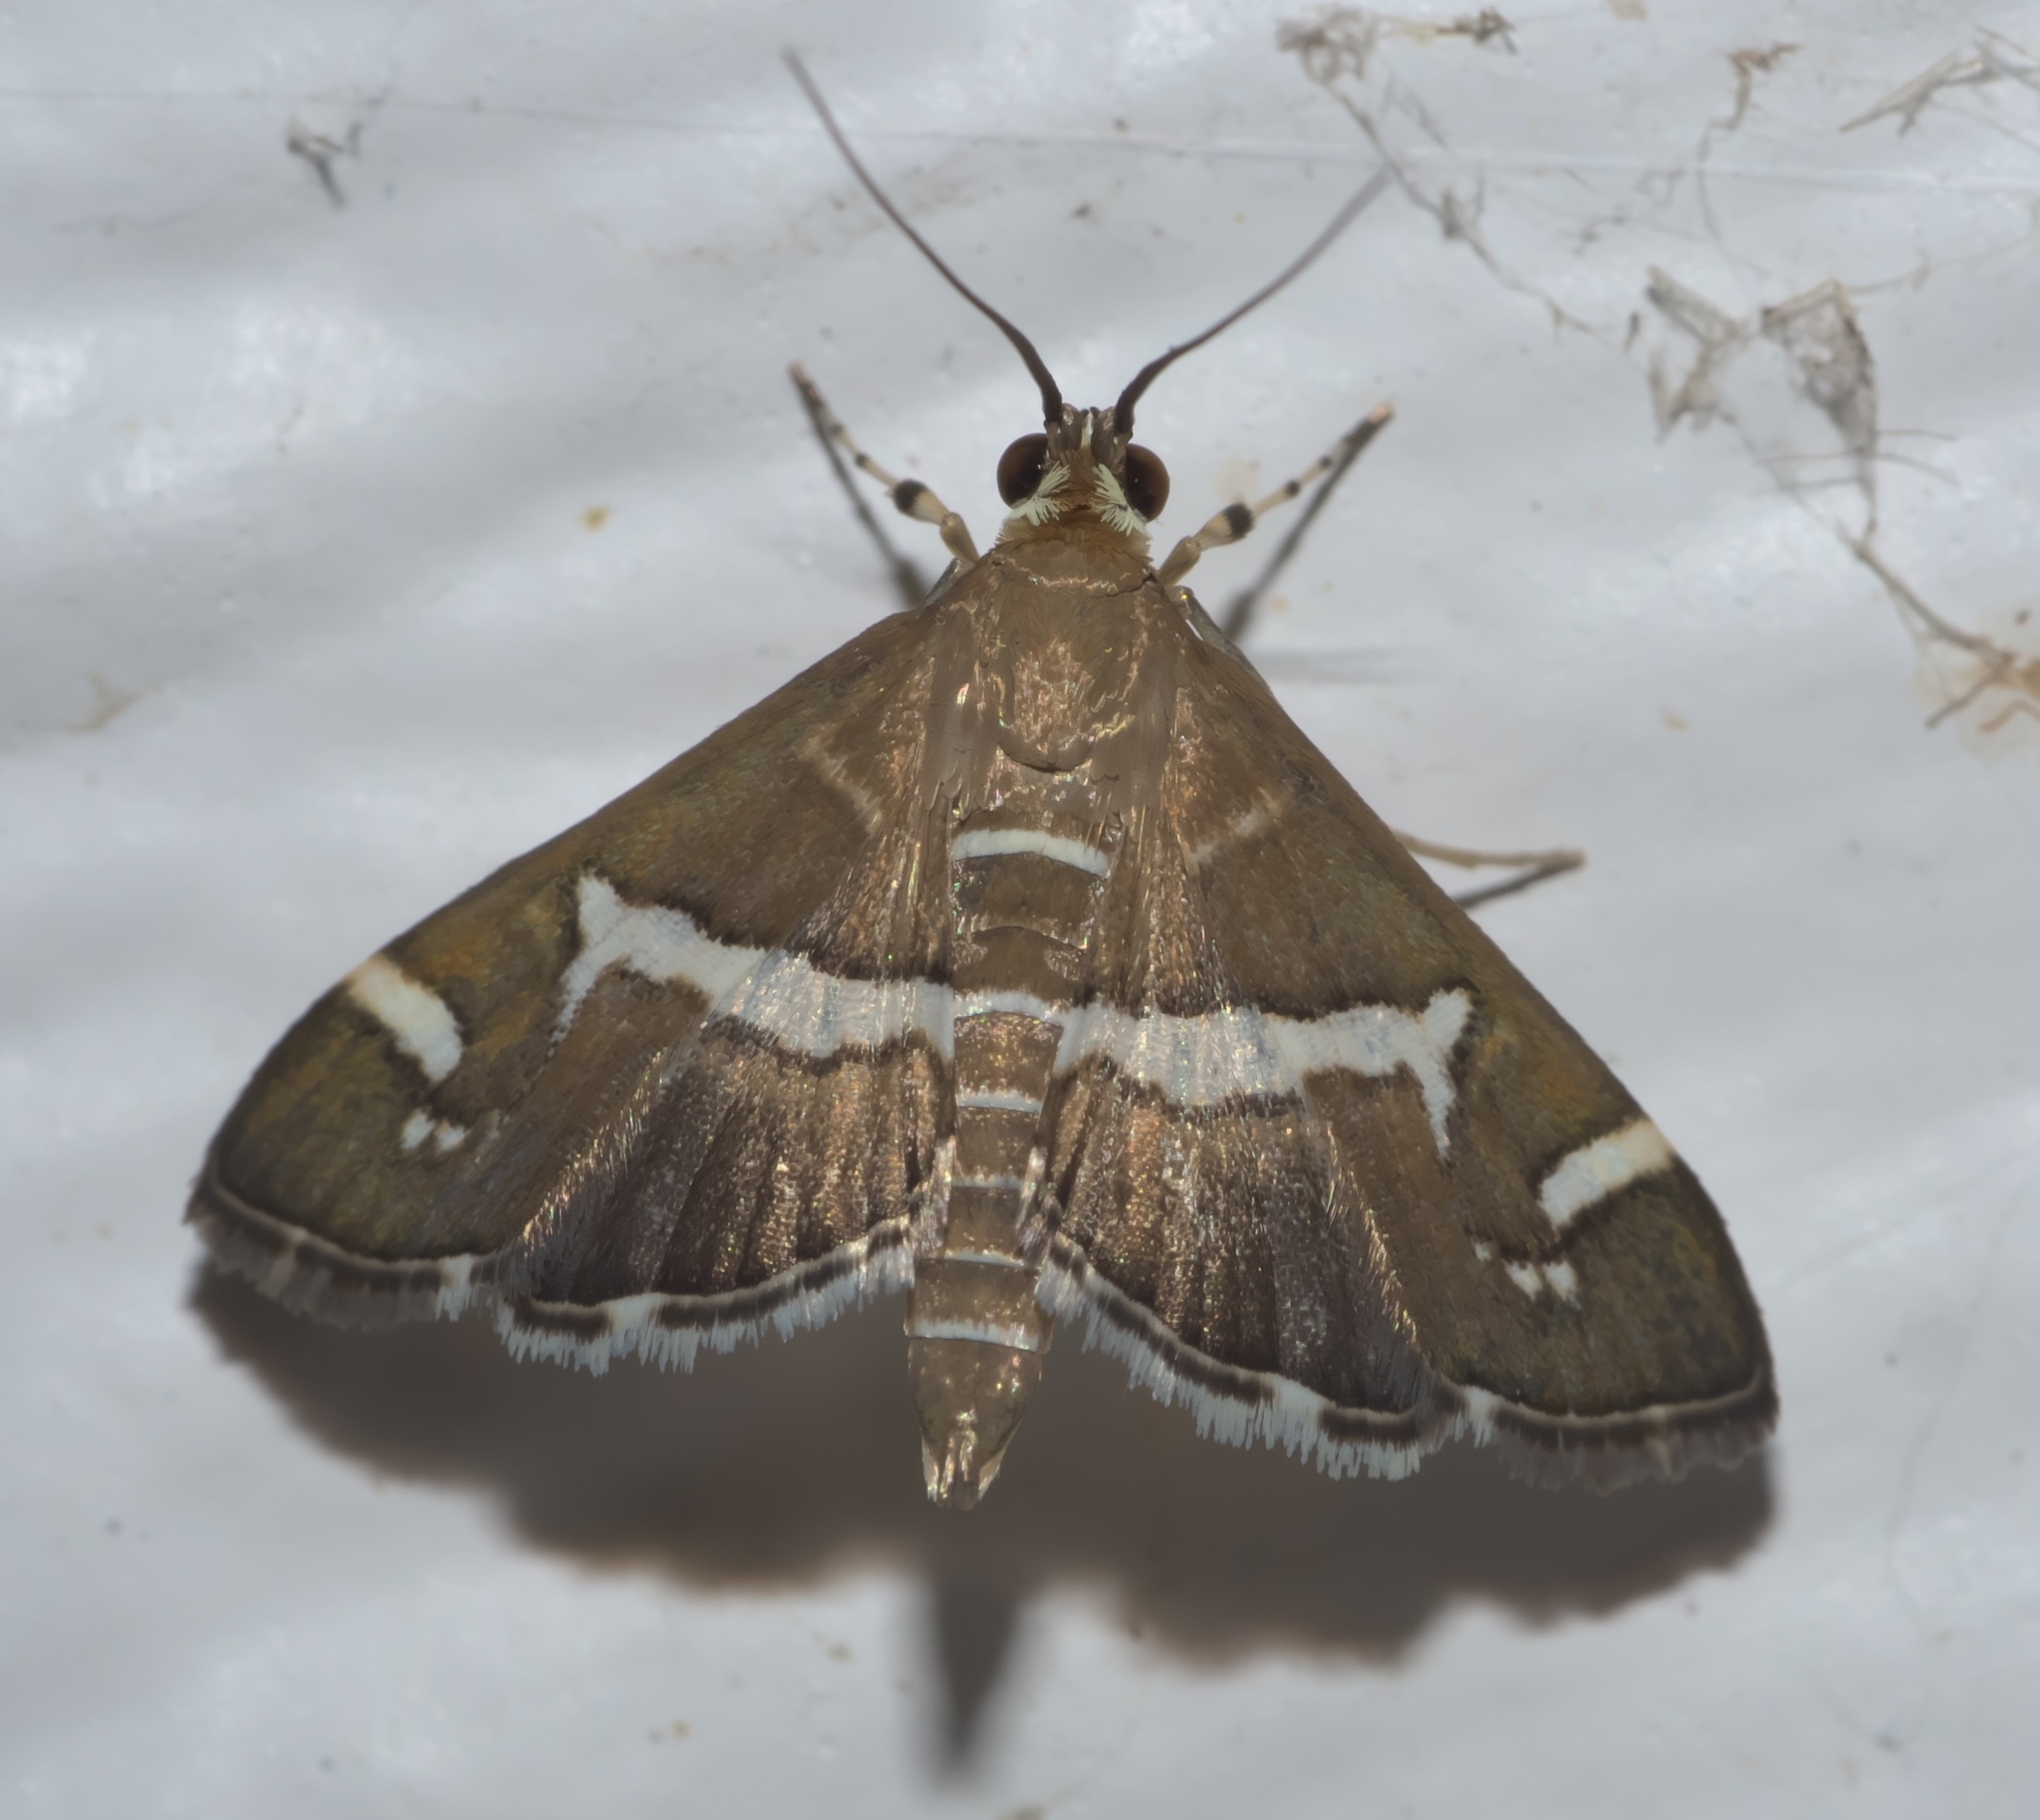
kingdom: Animalia
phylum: Arthropoda
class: Insecta
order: Lepidoptera
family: Crambidae
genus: Spoladea
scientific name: Spoladea recurvalis
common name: Beet webworm moth
